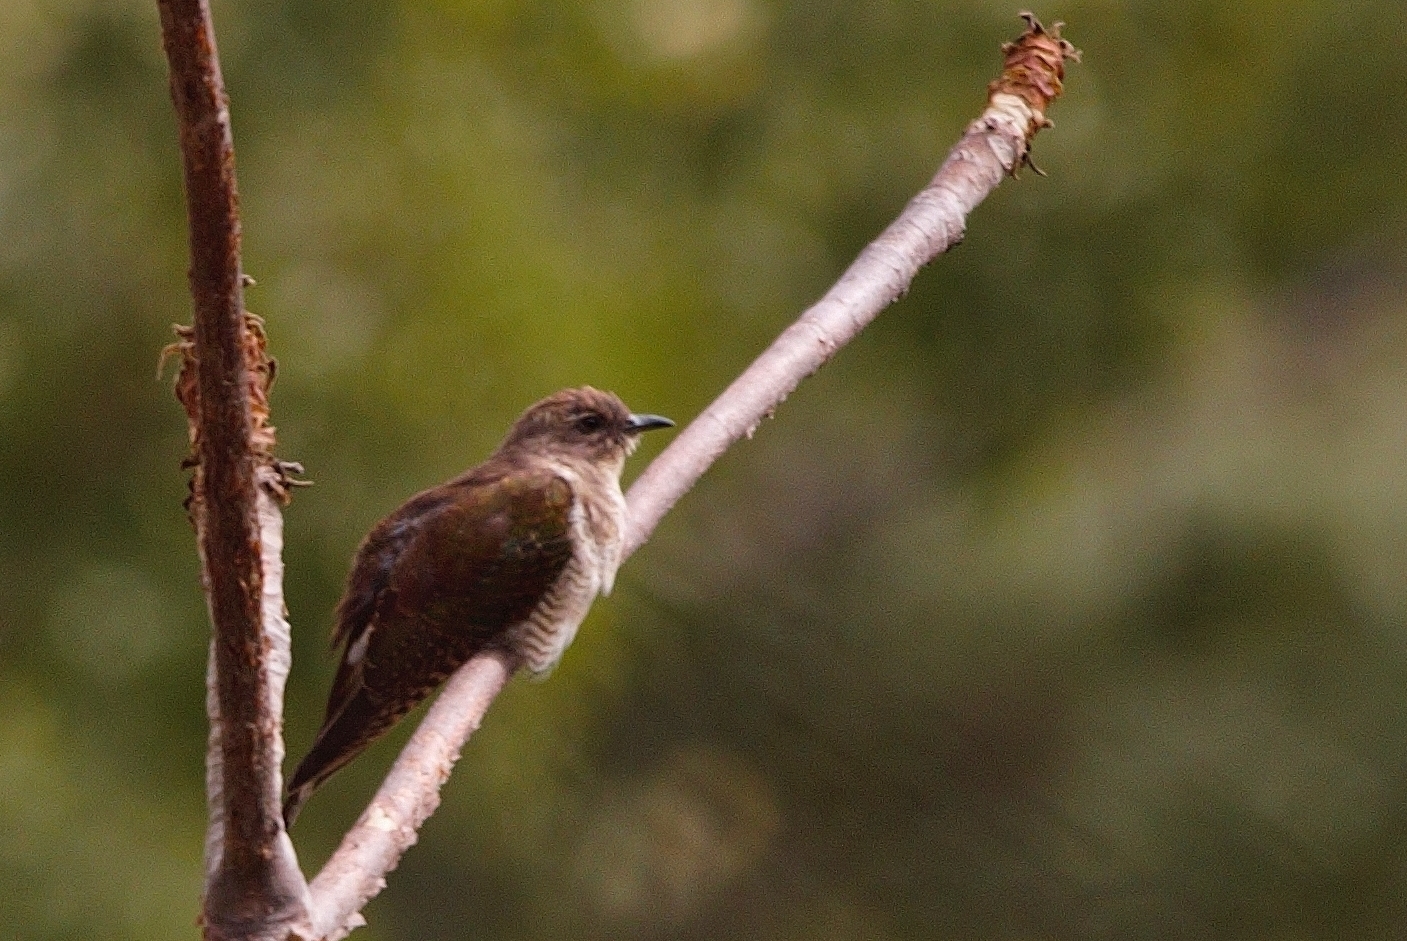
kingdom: Animalia
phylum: Chordata
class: Aves
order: Cuculiformes
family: Cuculidae
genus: Chrysococcyx
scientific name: Chrysococcyx klaas
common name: Klaas's cuckoo
